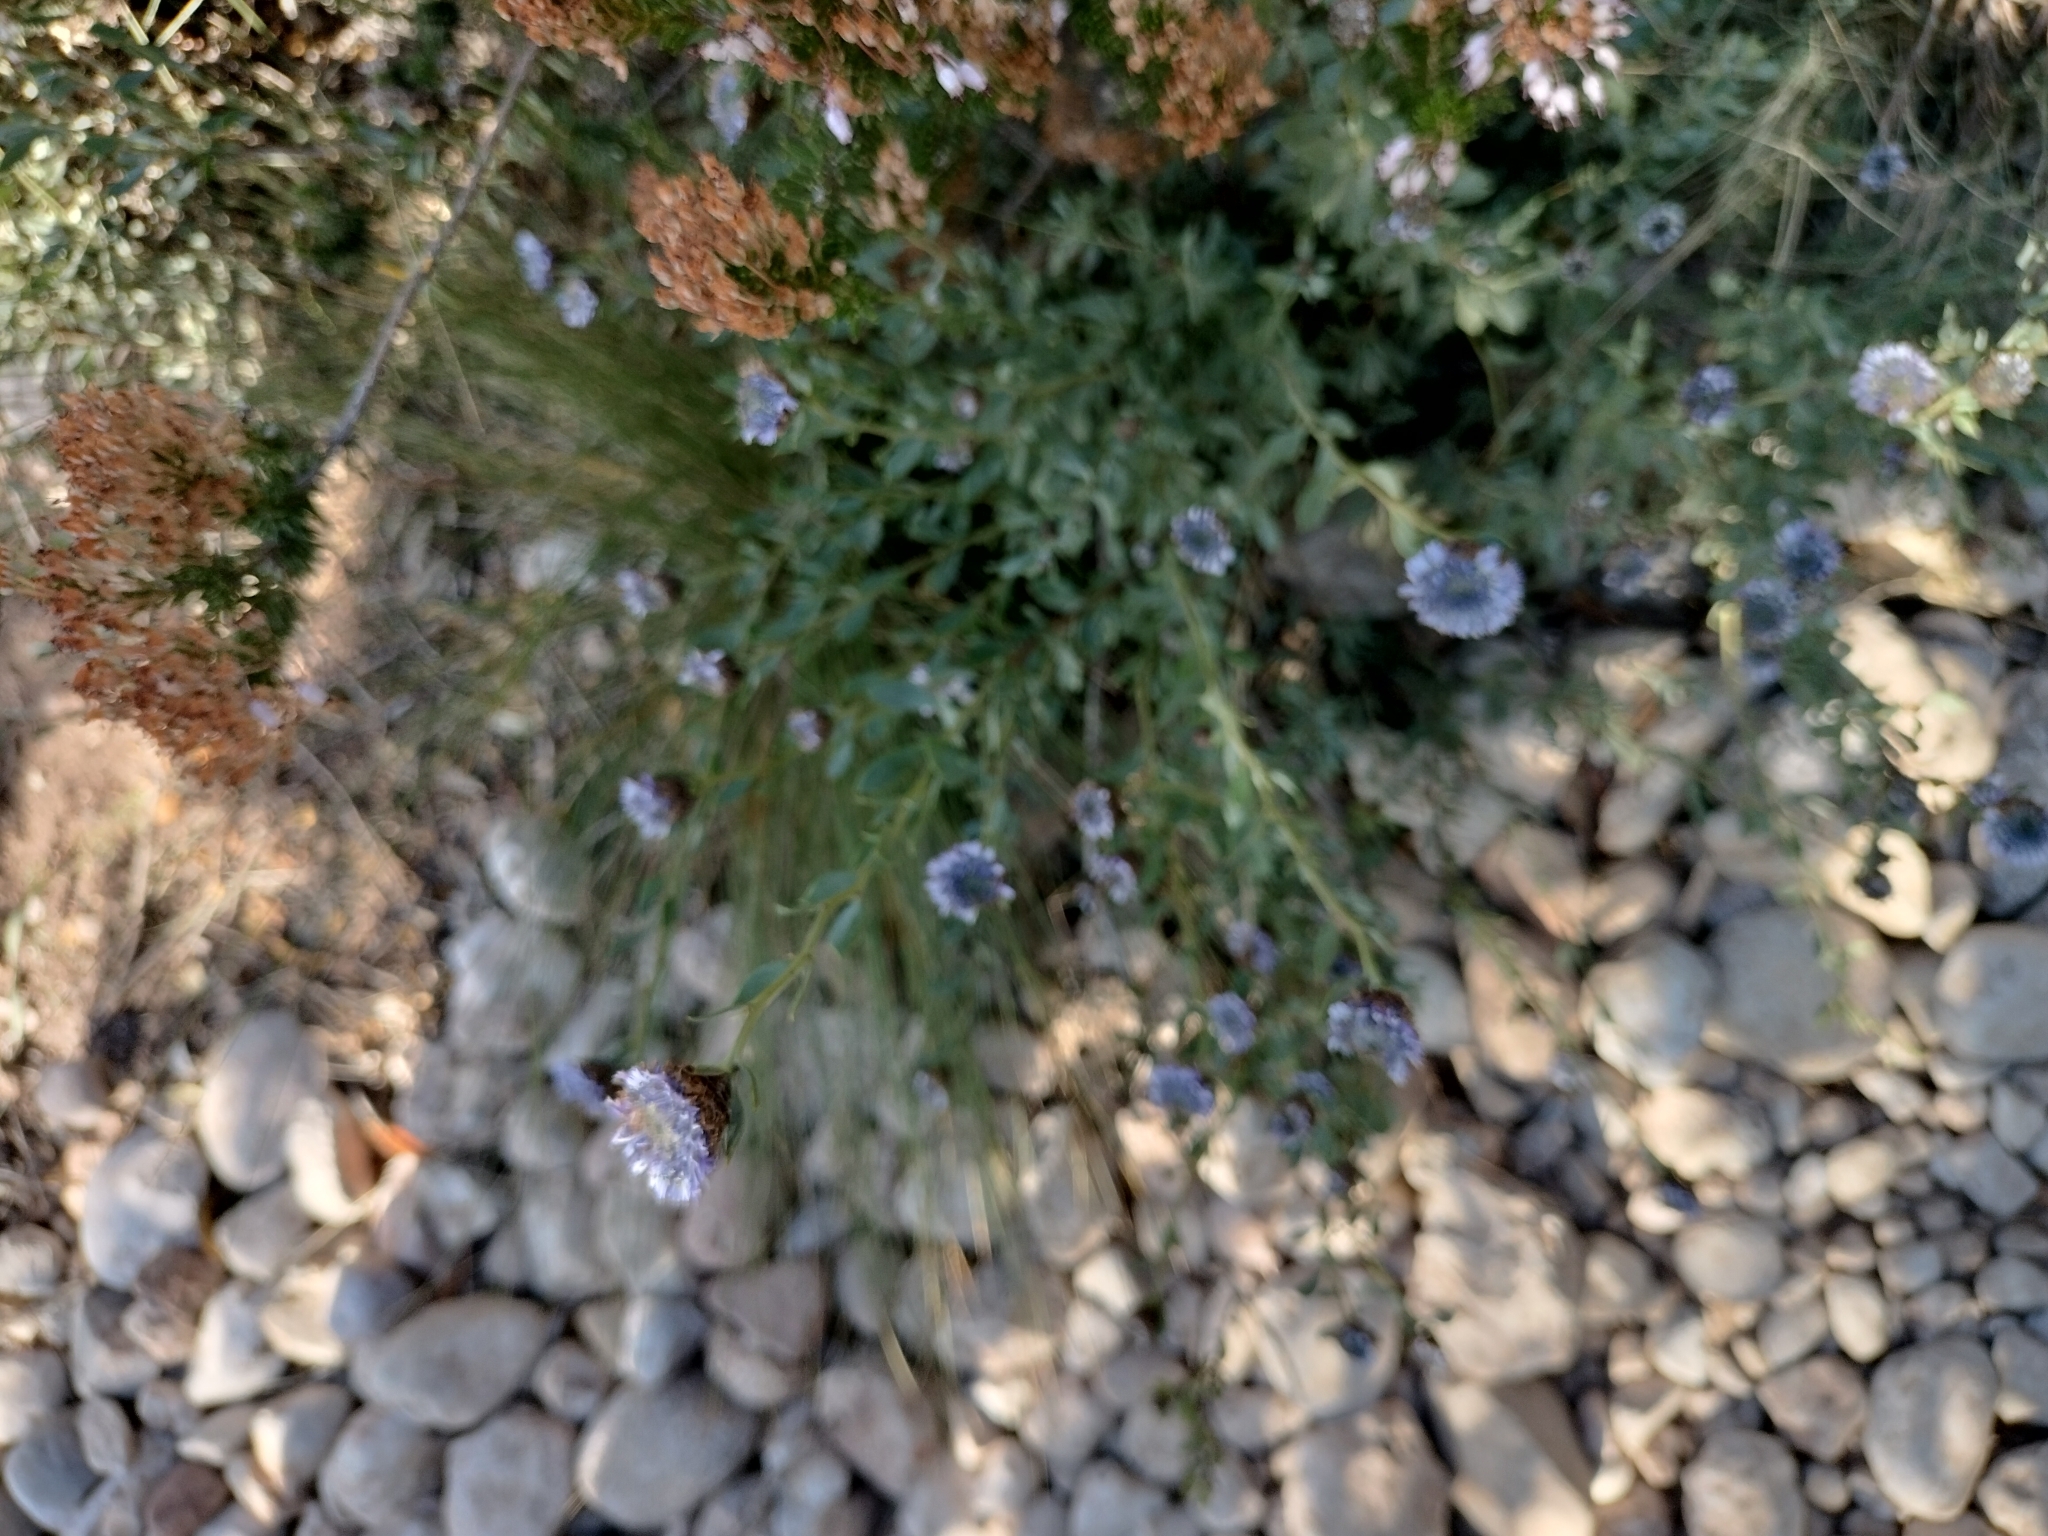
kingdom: Plantae
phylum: Tracheophyta
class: Magnoliopsida
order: Lamiales
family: Plantaginaceae
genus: Globularia
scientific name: Globularia alypum
